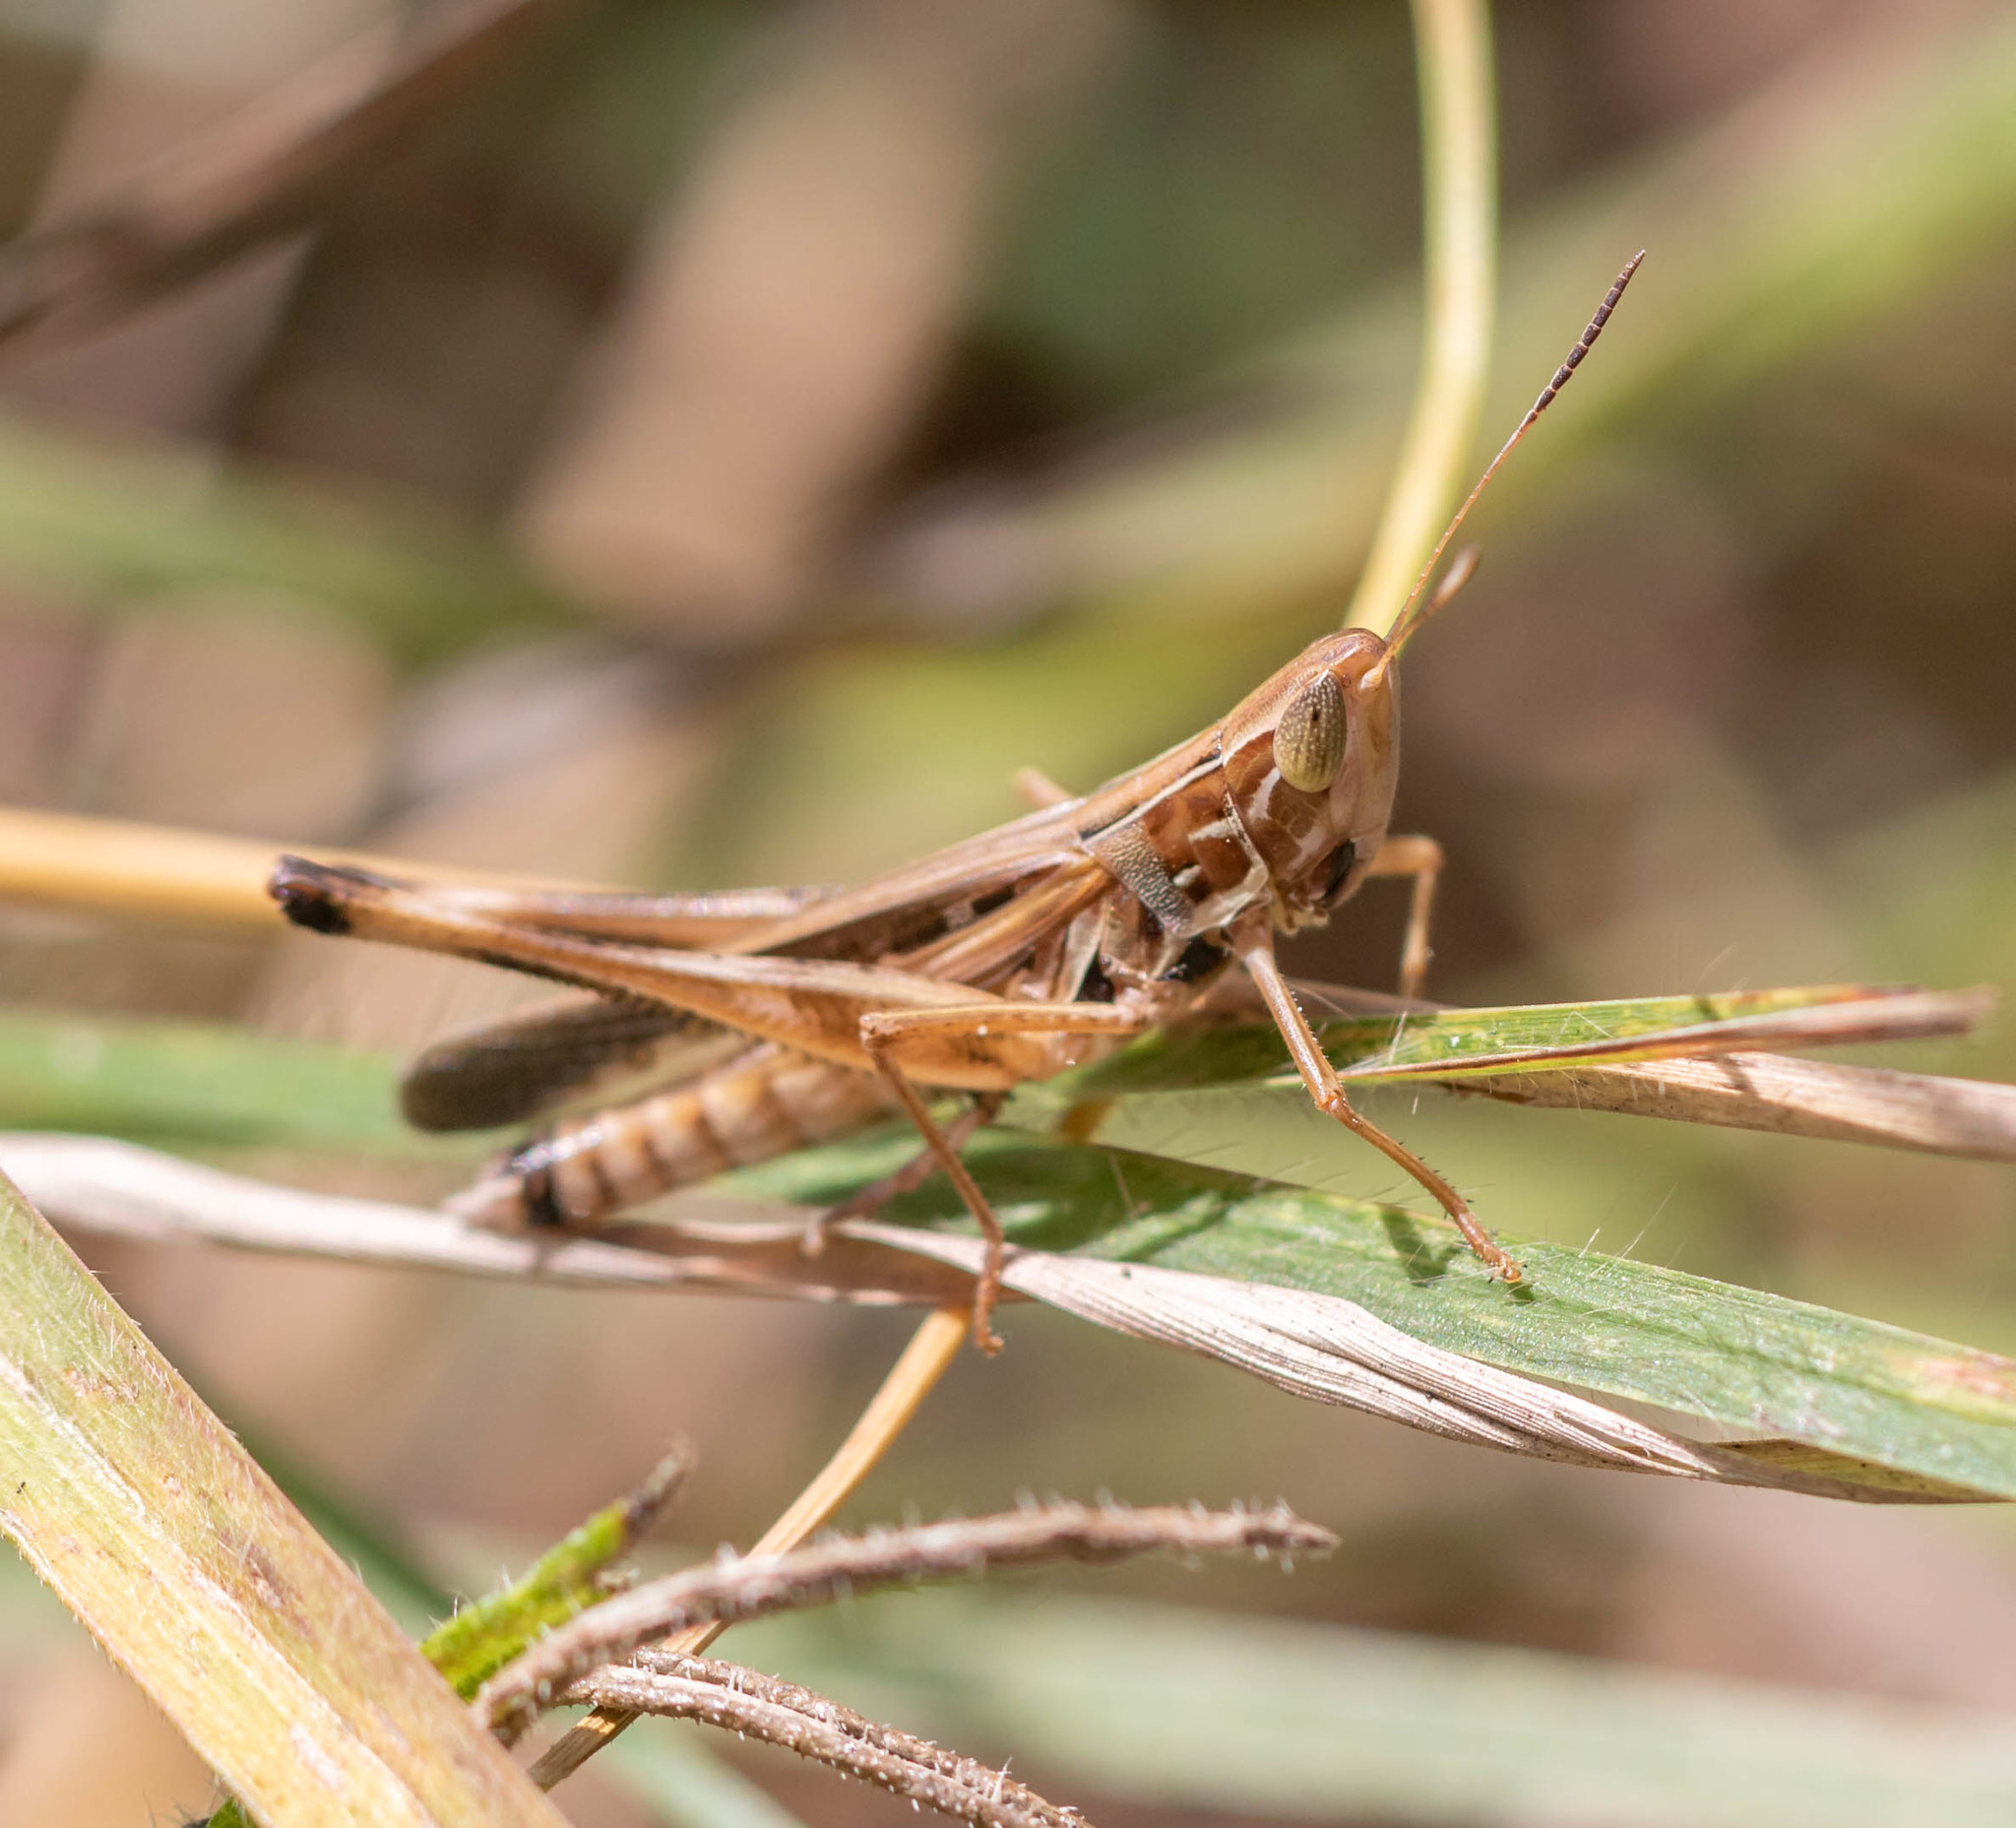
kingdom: Animalia
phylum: Arthropoda
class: Insecta
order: Orthoptera
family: Acrididae
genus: Syrbula
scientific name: Syrbula admirabilis
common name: Handsome grasshopper
